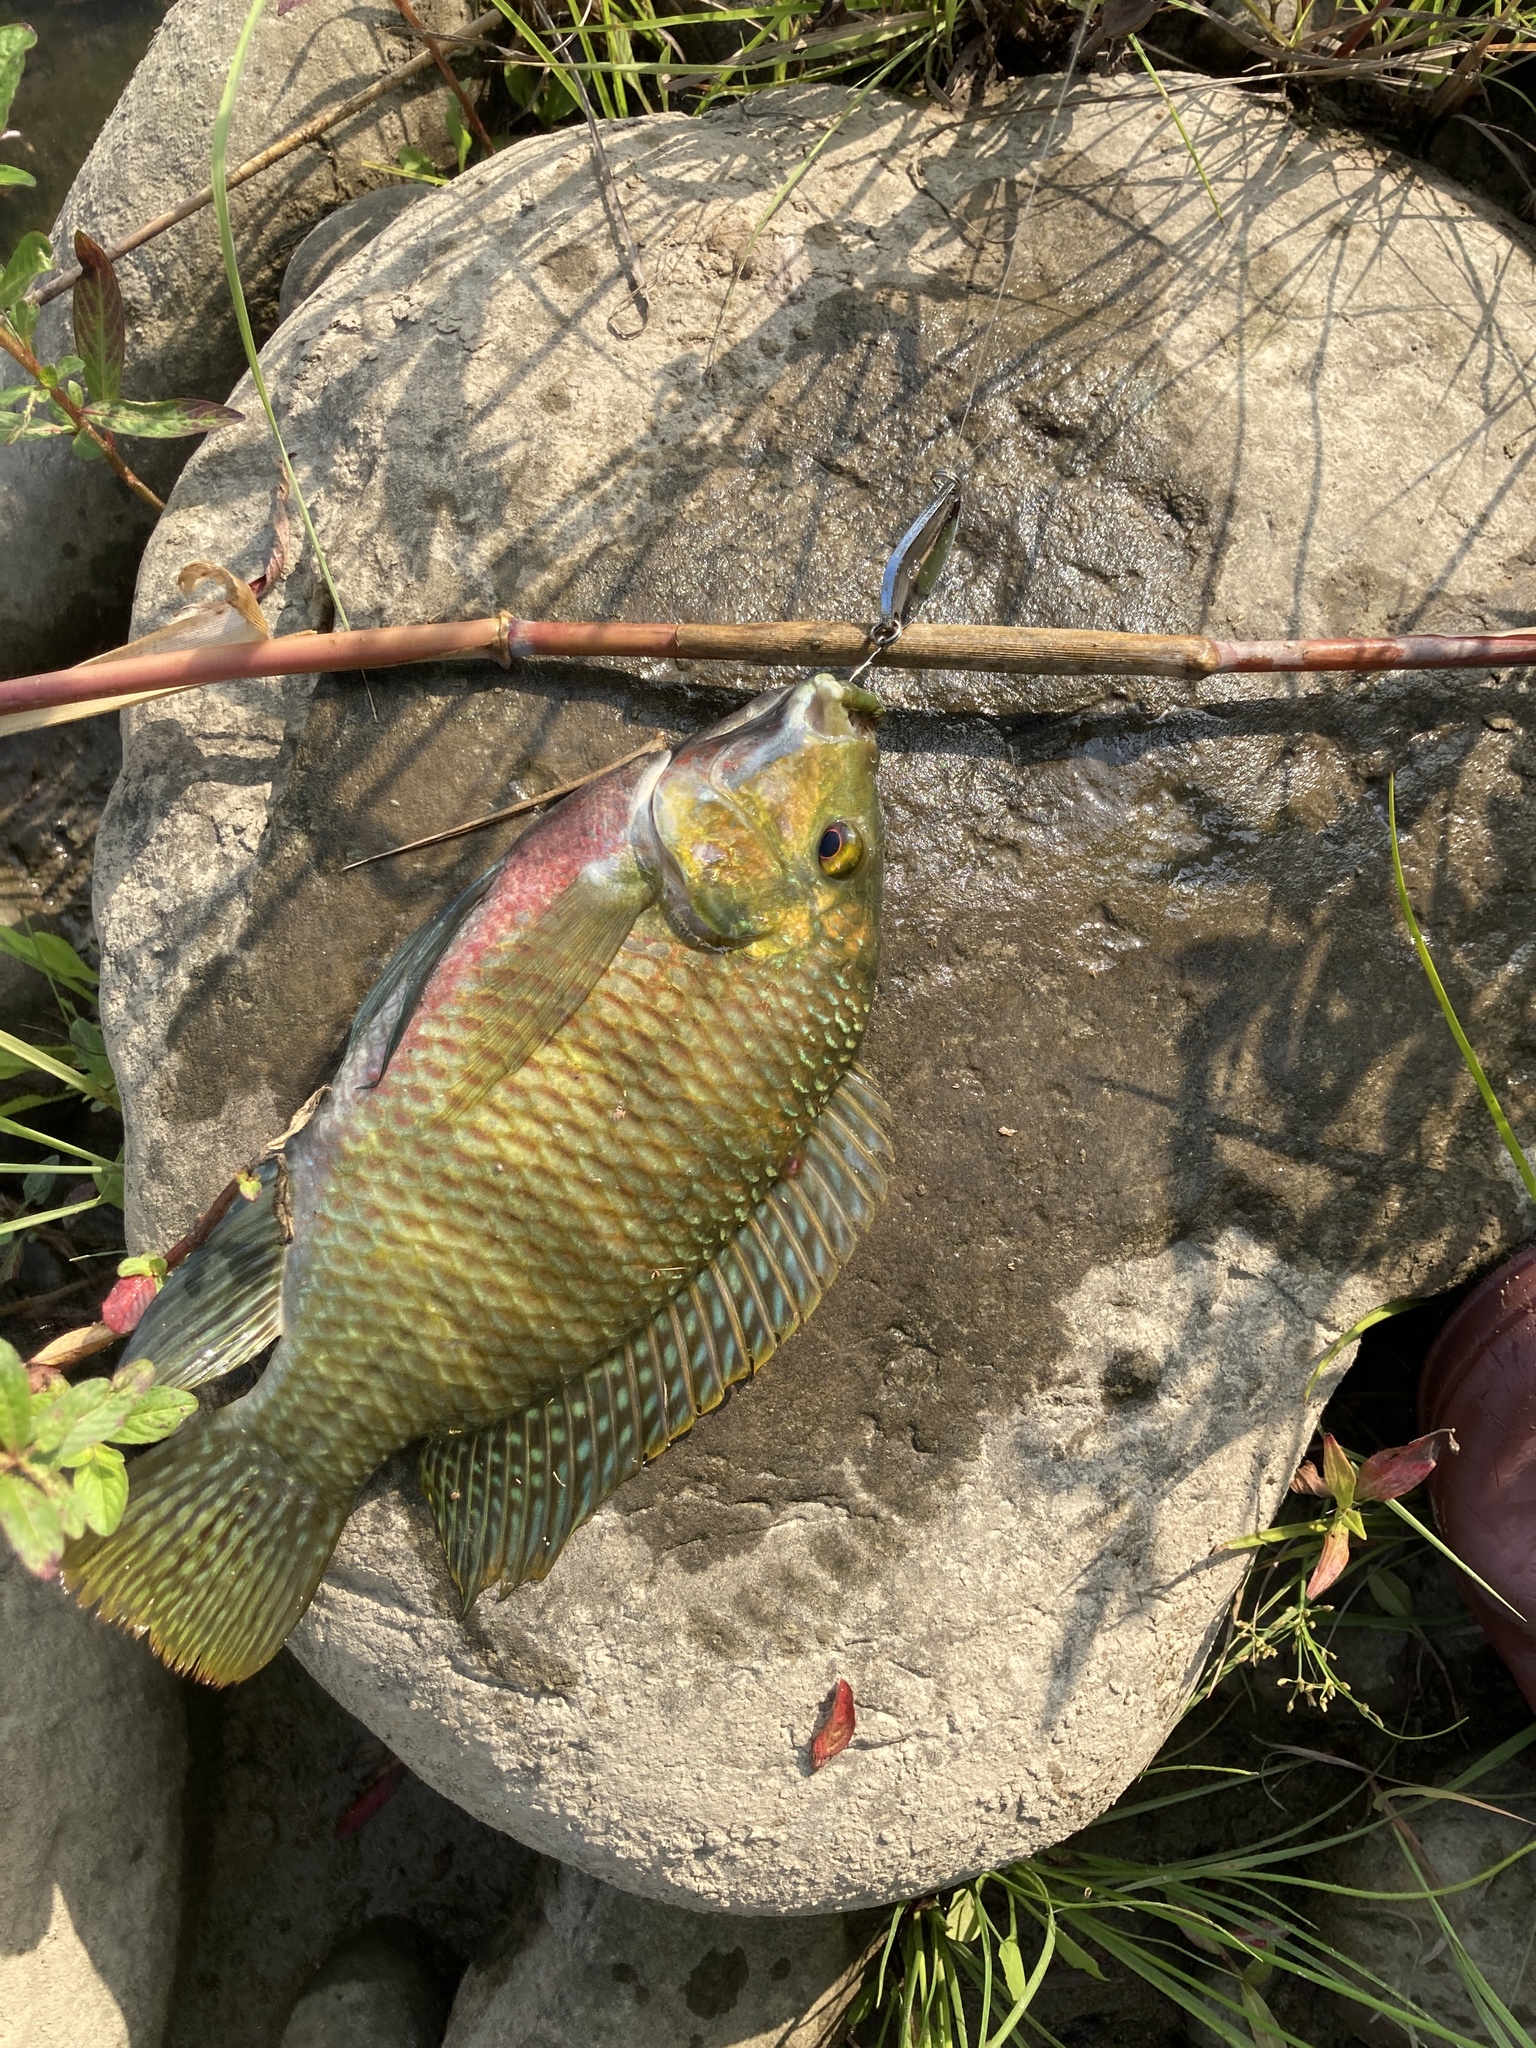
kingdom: Animalia
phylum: Chordata
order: Perciformes
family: Cichlidae
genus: Coptodon
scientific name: Coptodon zillii
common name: Redbelly tilapia
